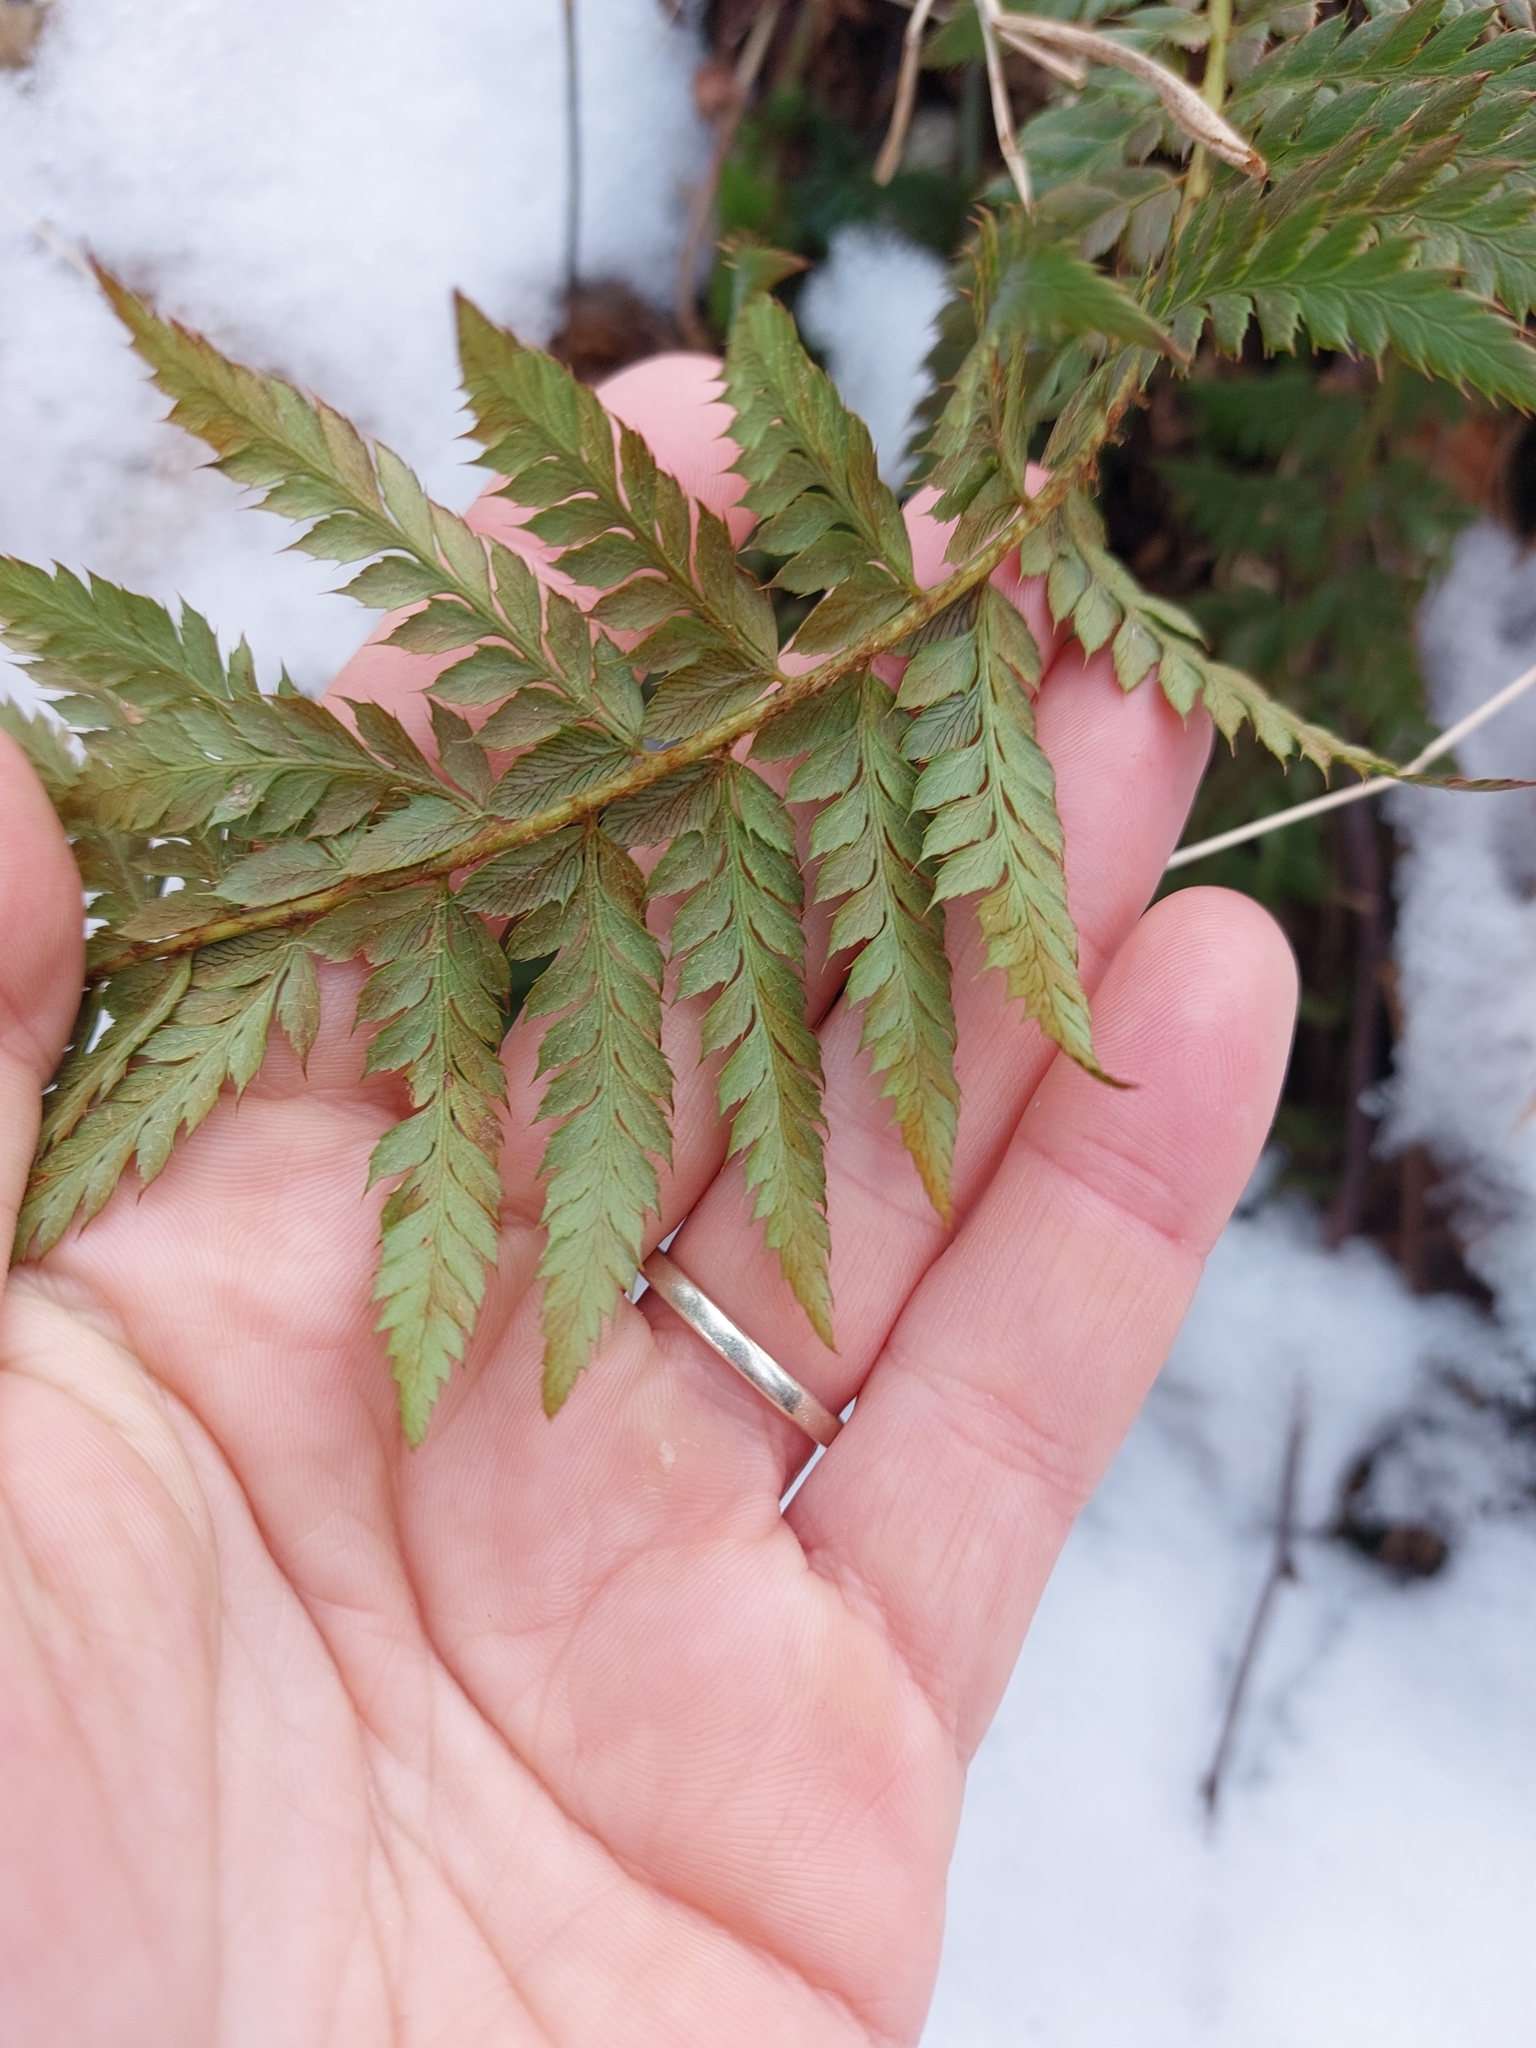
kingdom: Plantae
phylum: Tracheophyta
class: Polypodiopsida
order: Polypodiales
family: Dryopteridaceae
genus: Polystichum
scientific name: Polystichum aculeatum
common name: Hard shield-fern
